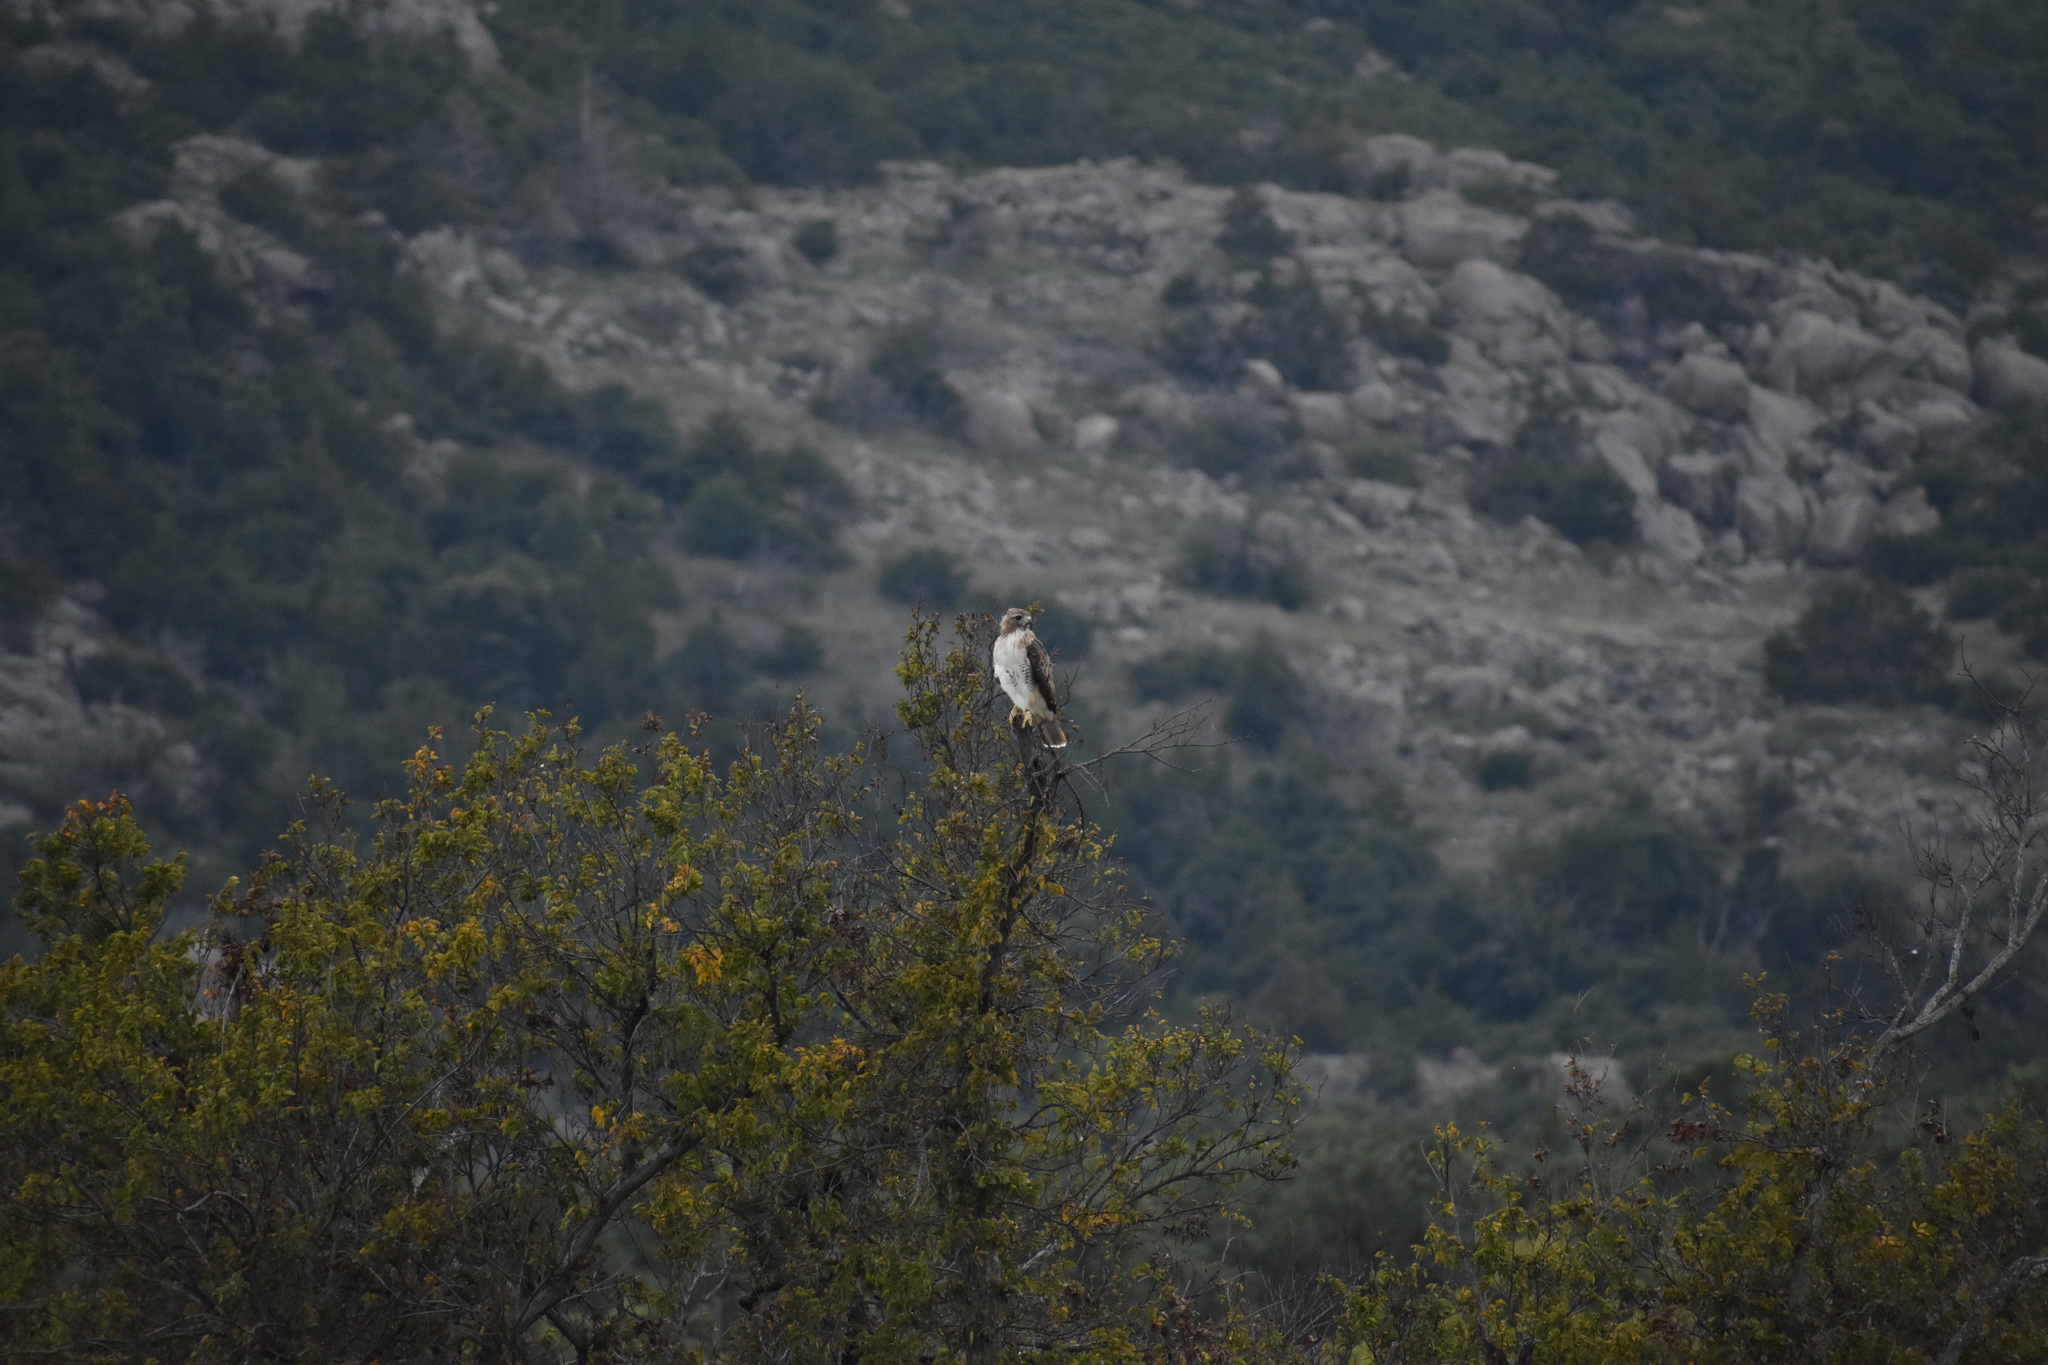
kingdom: Animalia
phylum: Chordata
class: Aves
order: Accipitriformes
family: Accipitridae
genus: Buteo
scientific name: Buteo jamaicensis
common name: Red-tailed hawk
